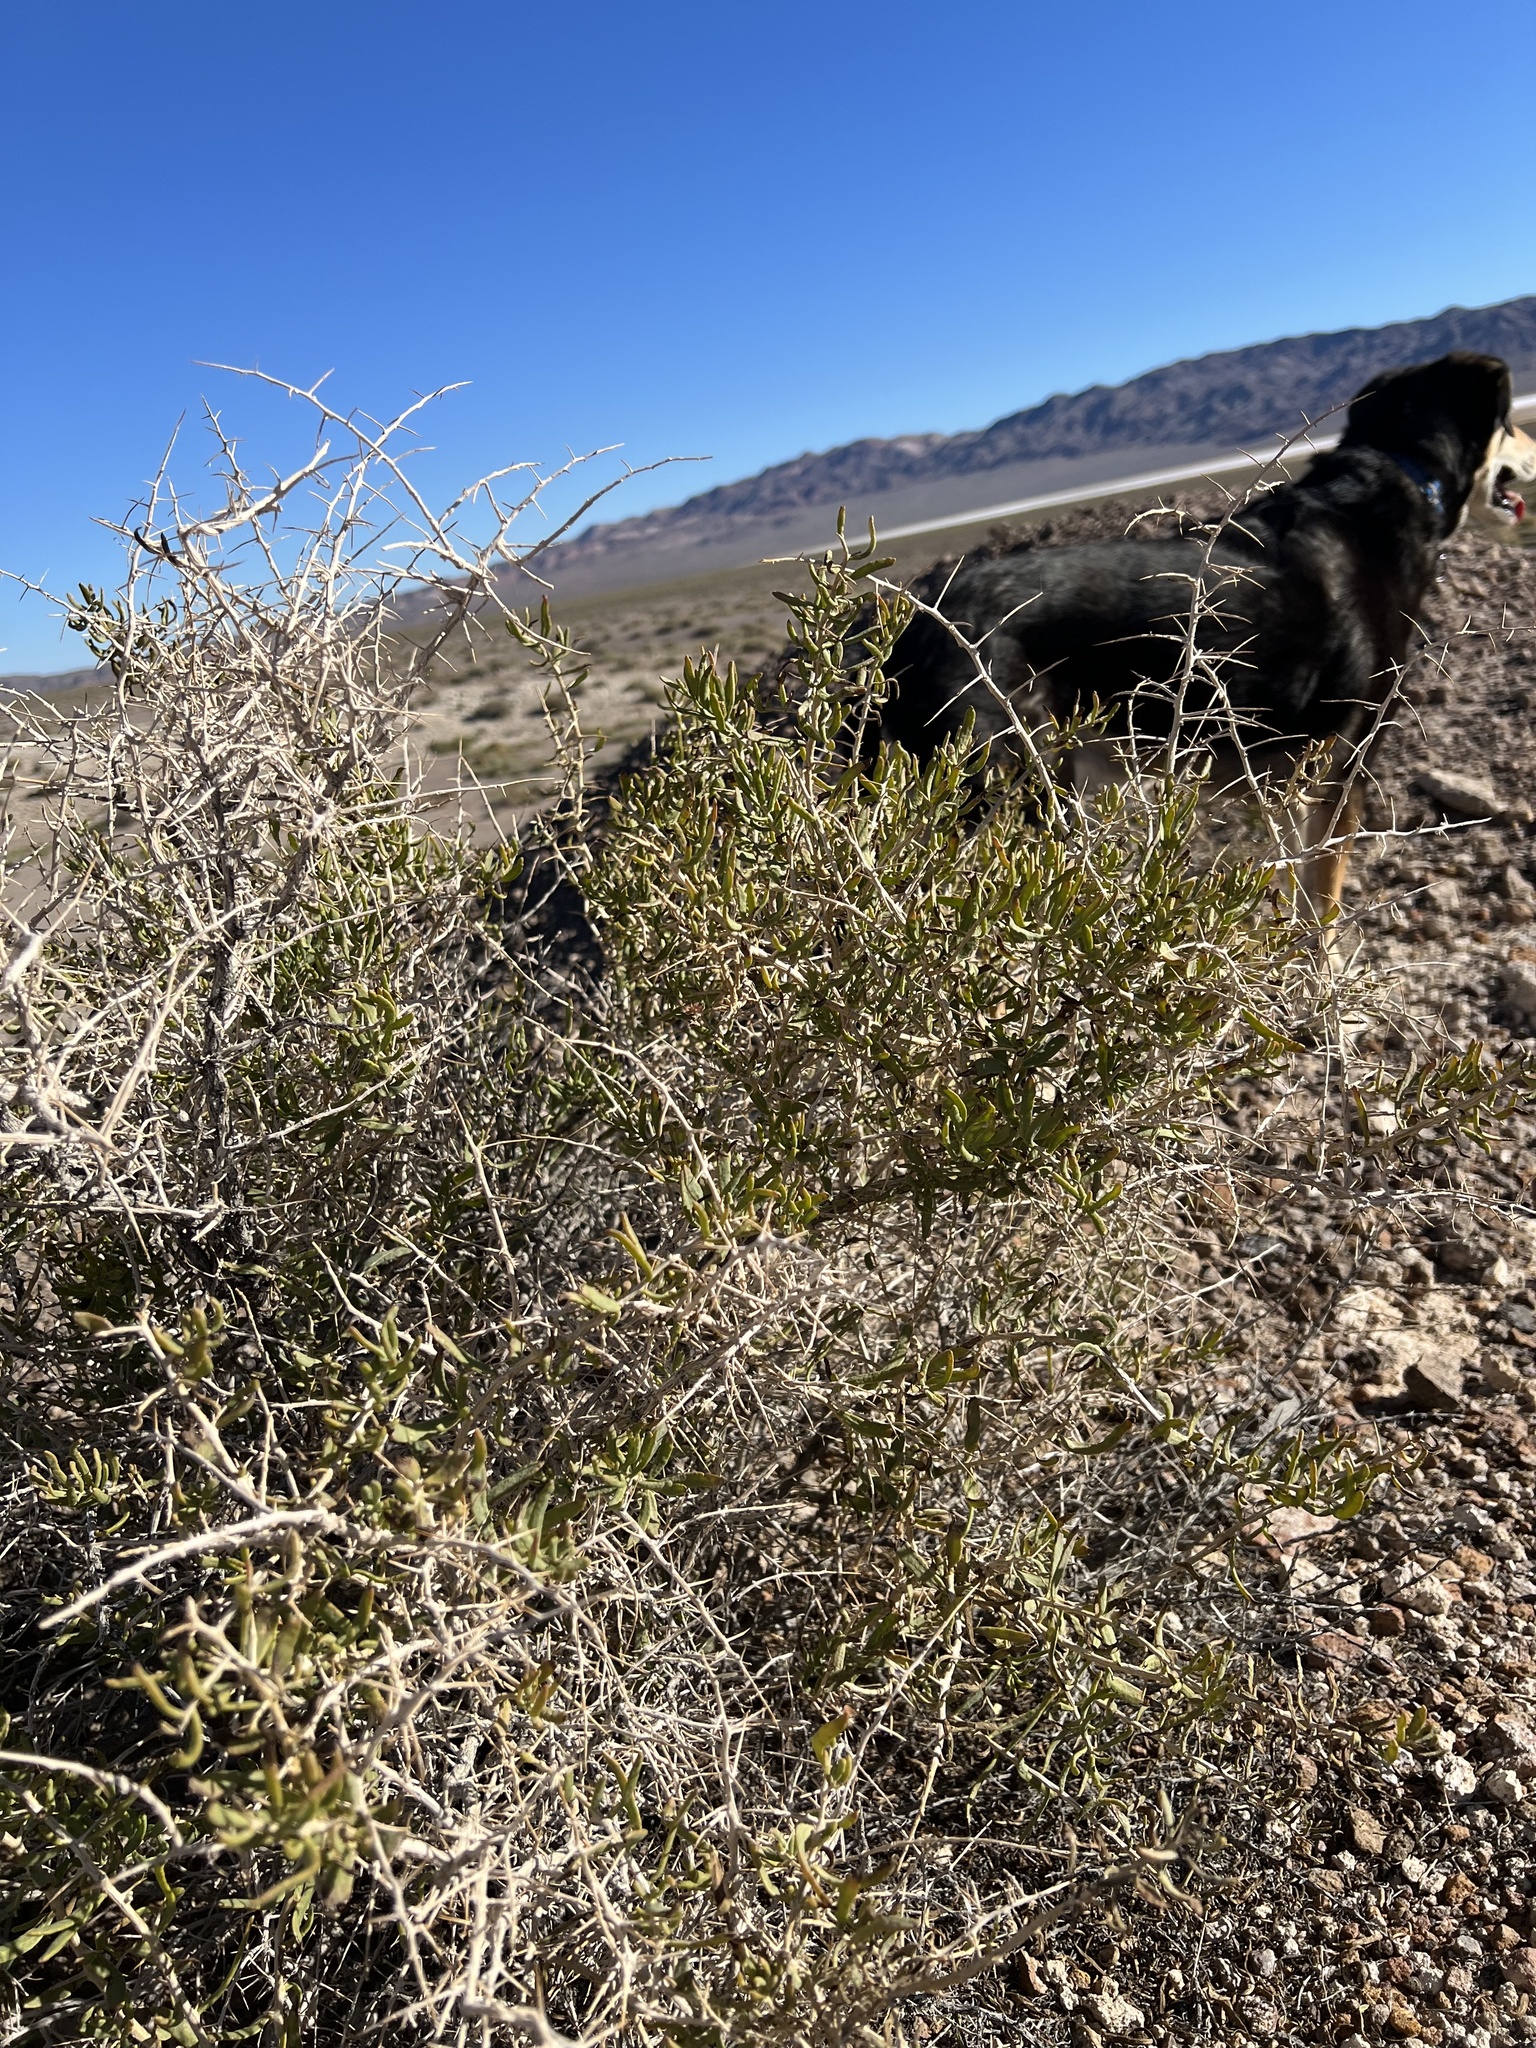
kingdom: Plantae
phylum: Tracheophyta
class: Magnoliopsida
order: Caryophyllales
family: Sarcobataceae
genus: Sarcobatus
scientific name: Sarcobatus vermiculatus
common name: Greasewood
